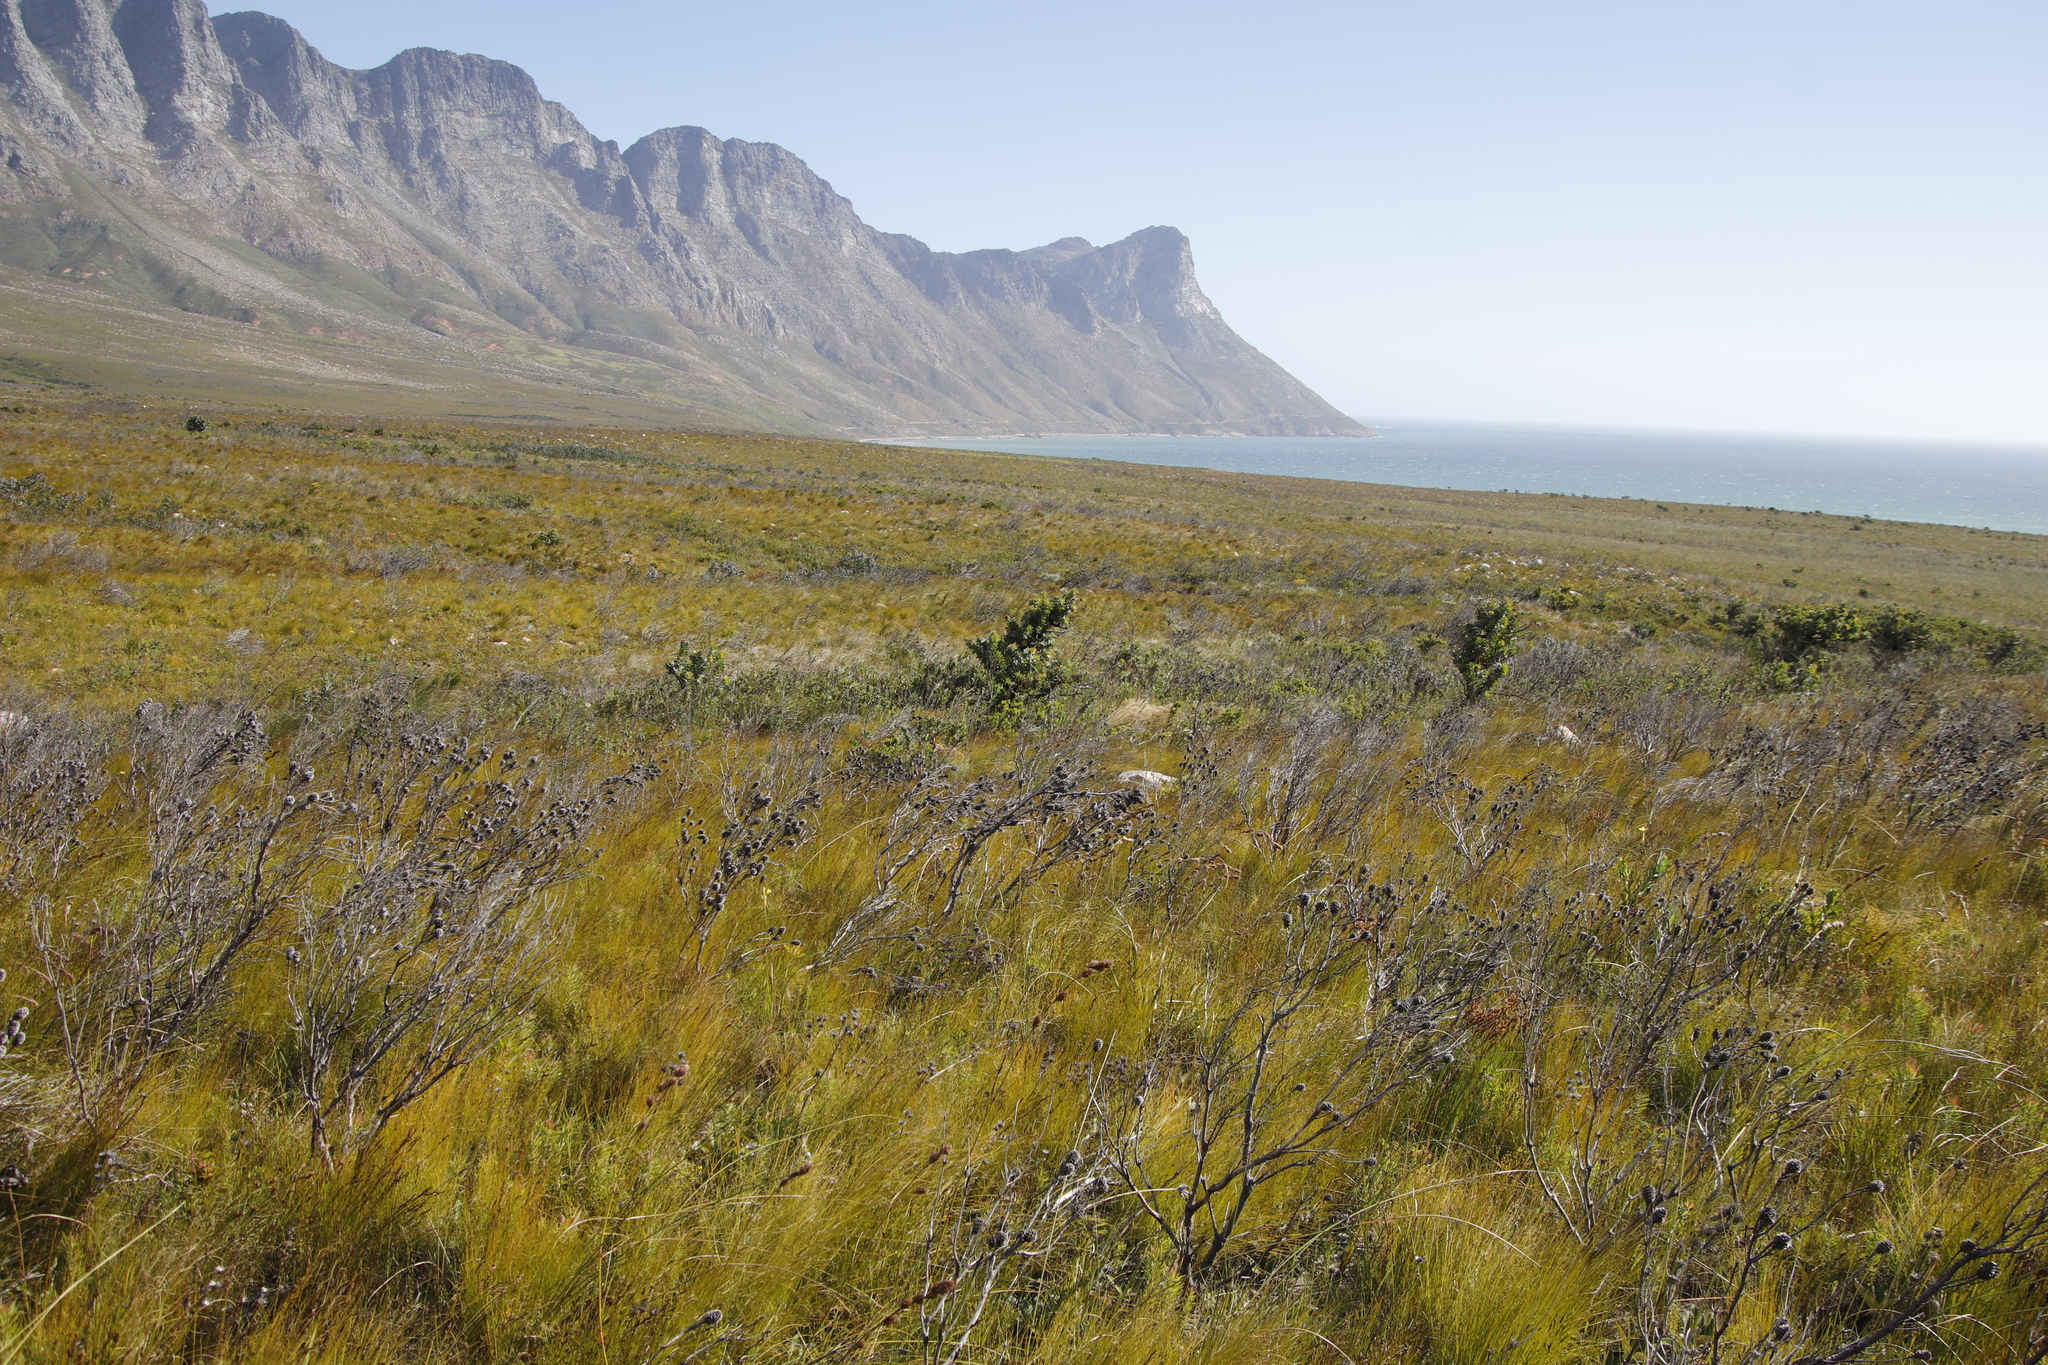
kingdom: Plantae
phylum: Tracheophyta
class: Magnoliopsida
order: Proteales
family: Proteaceae
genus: Leucadendron
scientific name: Leucadendron xanthoconus
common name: Sickle-leaf conebush
